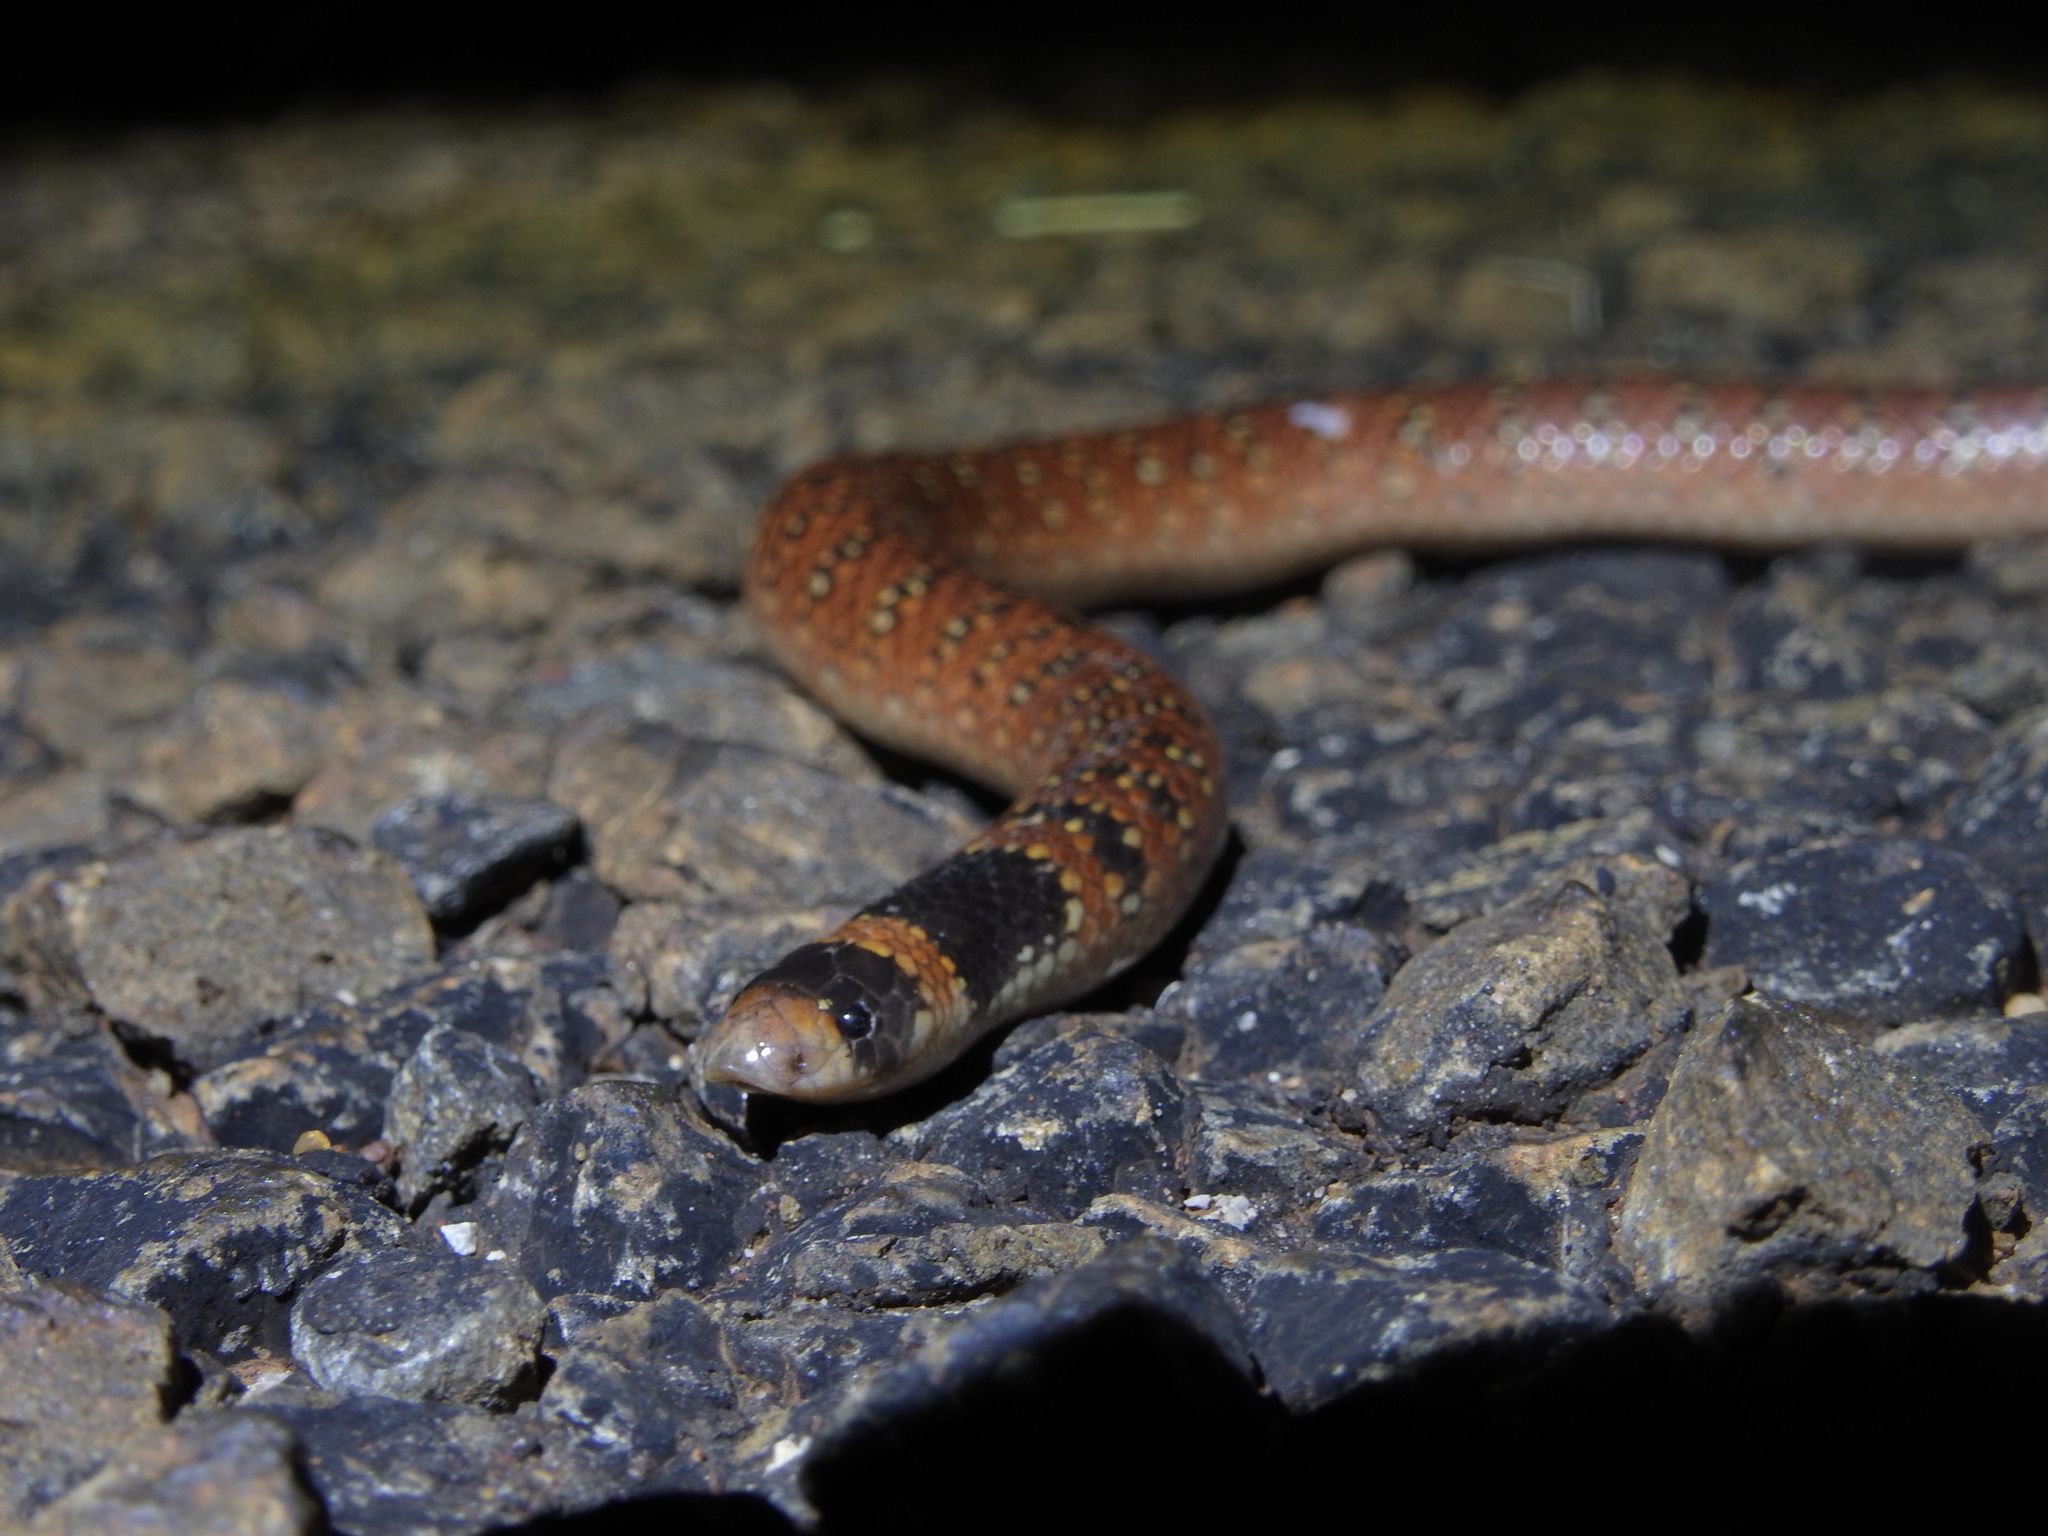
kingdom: Animalia
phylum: Chordata
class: Squamata
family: Elapidae
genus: Brachyurophis
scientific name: Brachyurophis australis
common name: Australian coral snake
